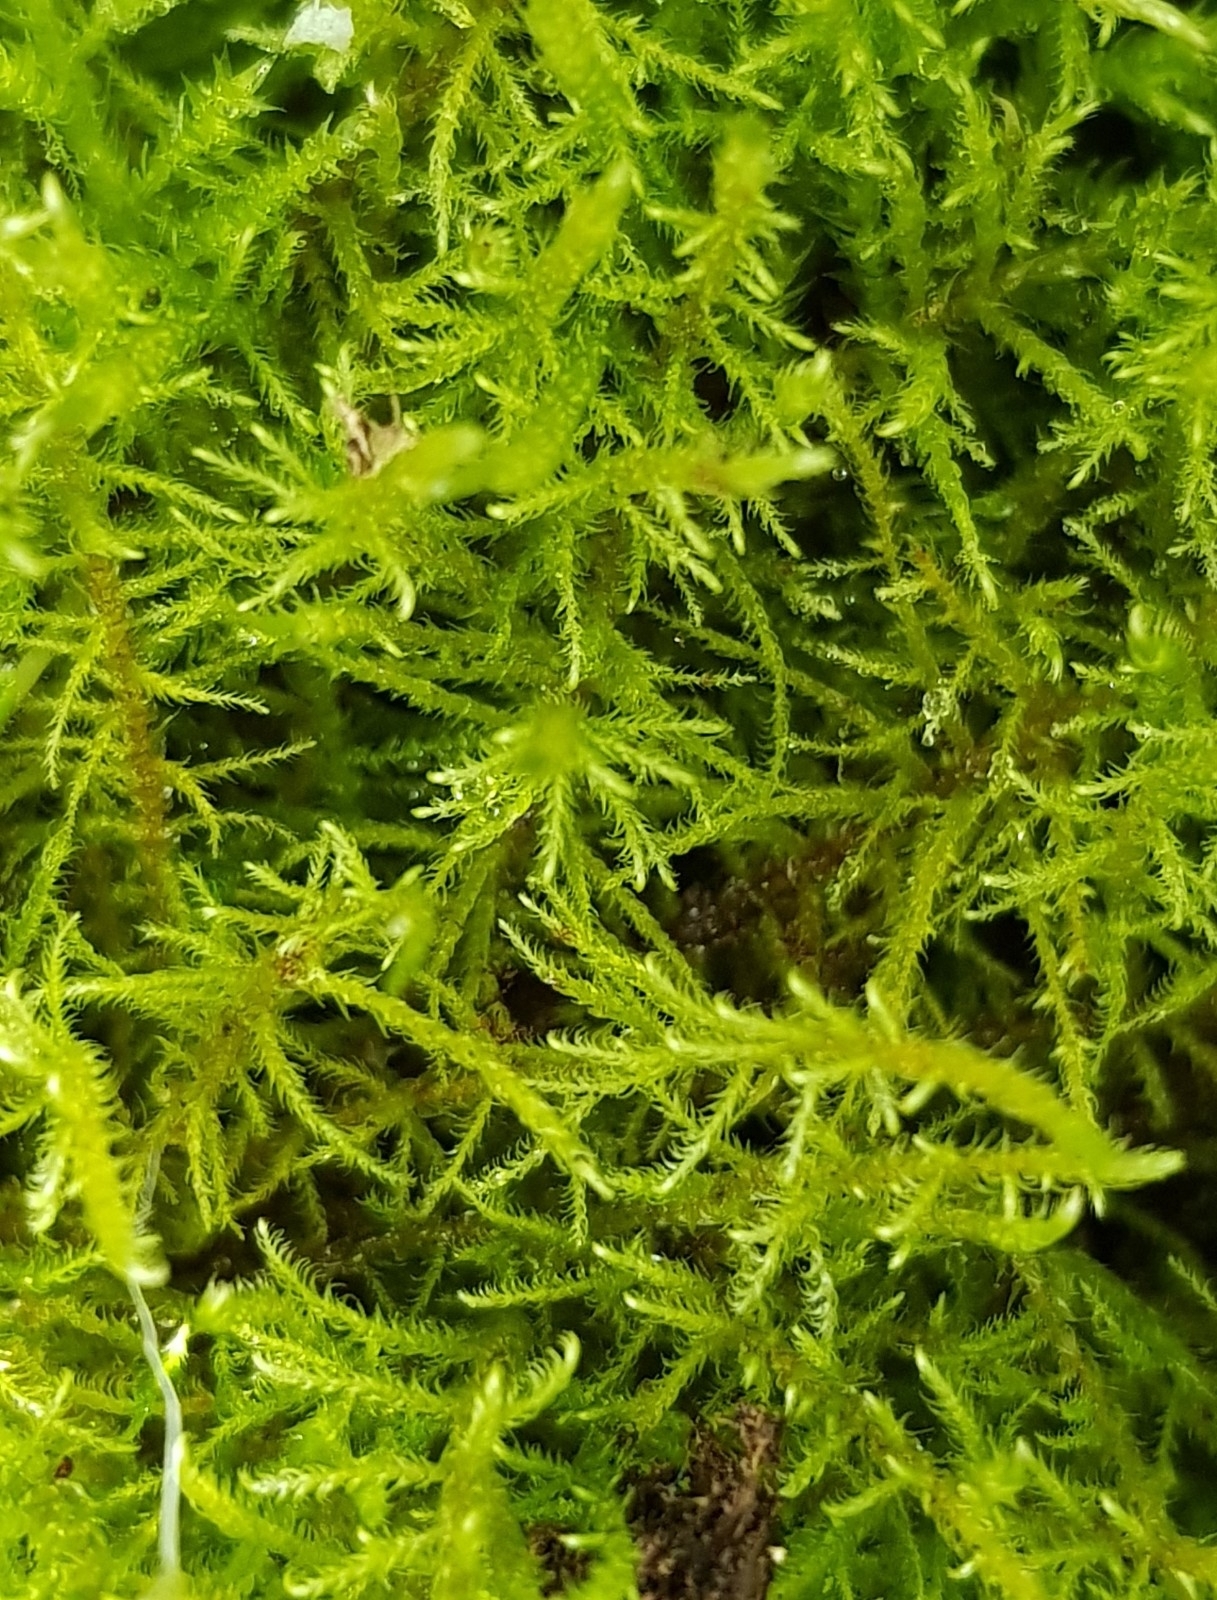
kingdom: Plantae
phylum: Bryophyta
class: Bryopsida
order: Hypnales
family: Amblystegiaceae
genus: Cratoneuron
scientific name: Cratoneuron filicinum
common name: Fern-leaved hook moss
